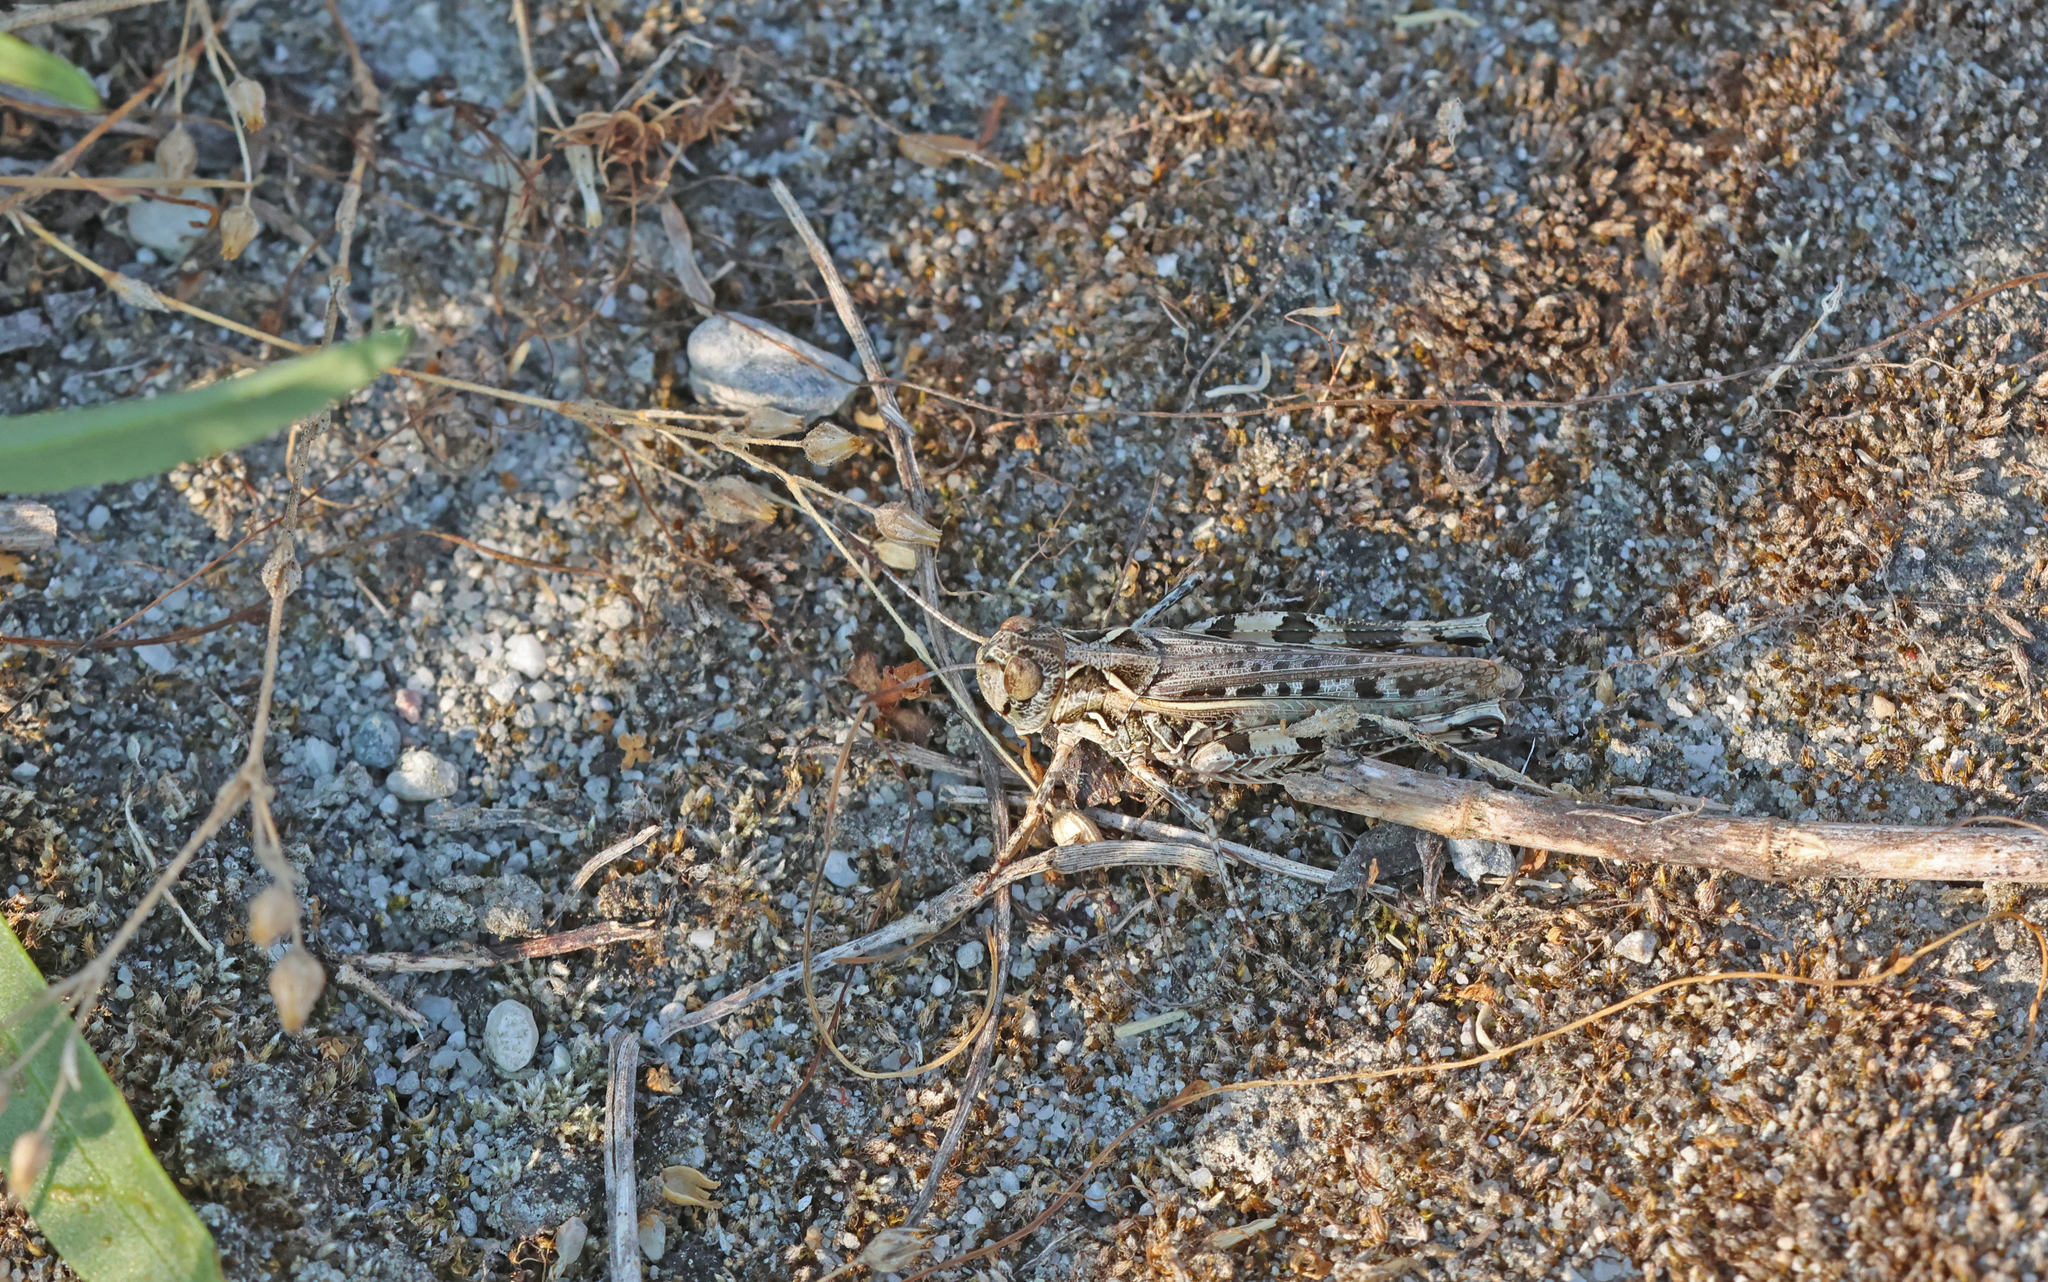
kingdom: Animalia
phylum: Arthropoda
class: Insecta
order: Orthoptera
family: Acrididae
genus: Dociostaurus
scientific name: Dociostaurus brevicollis
